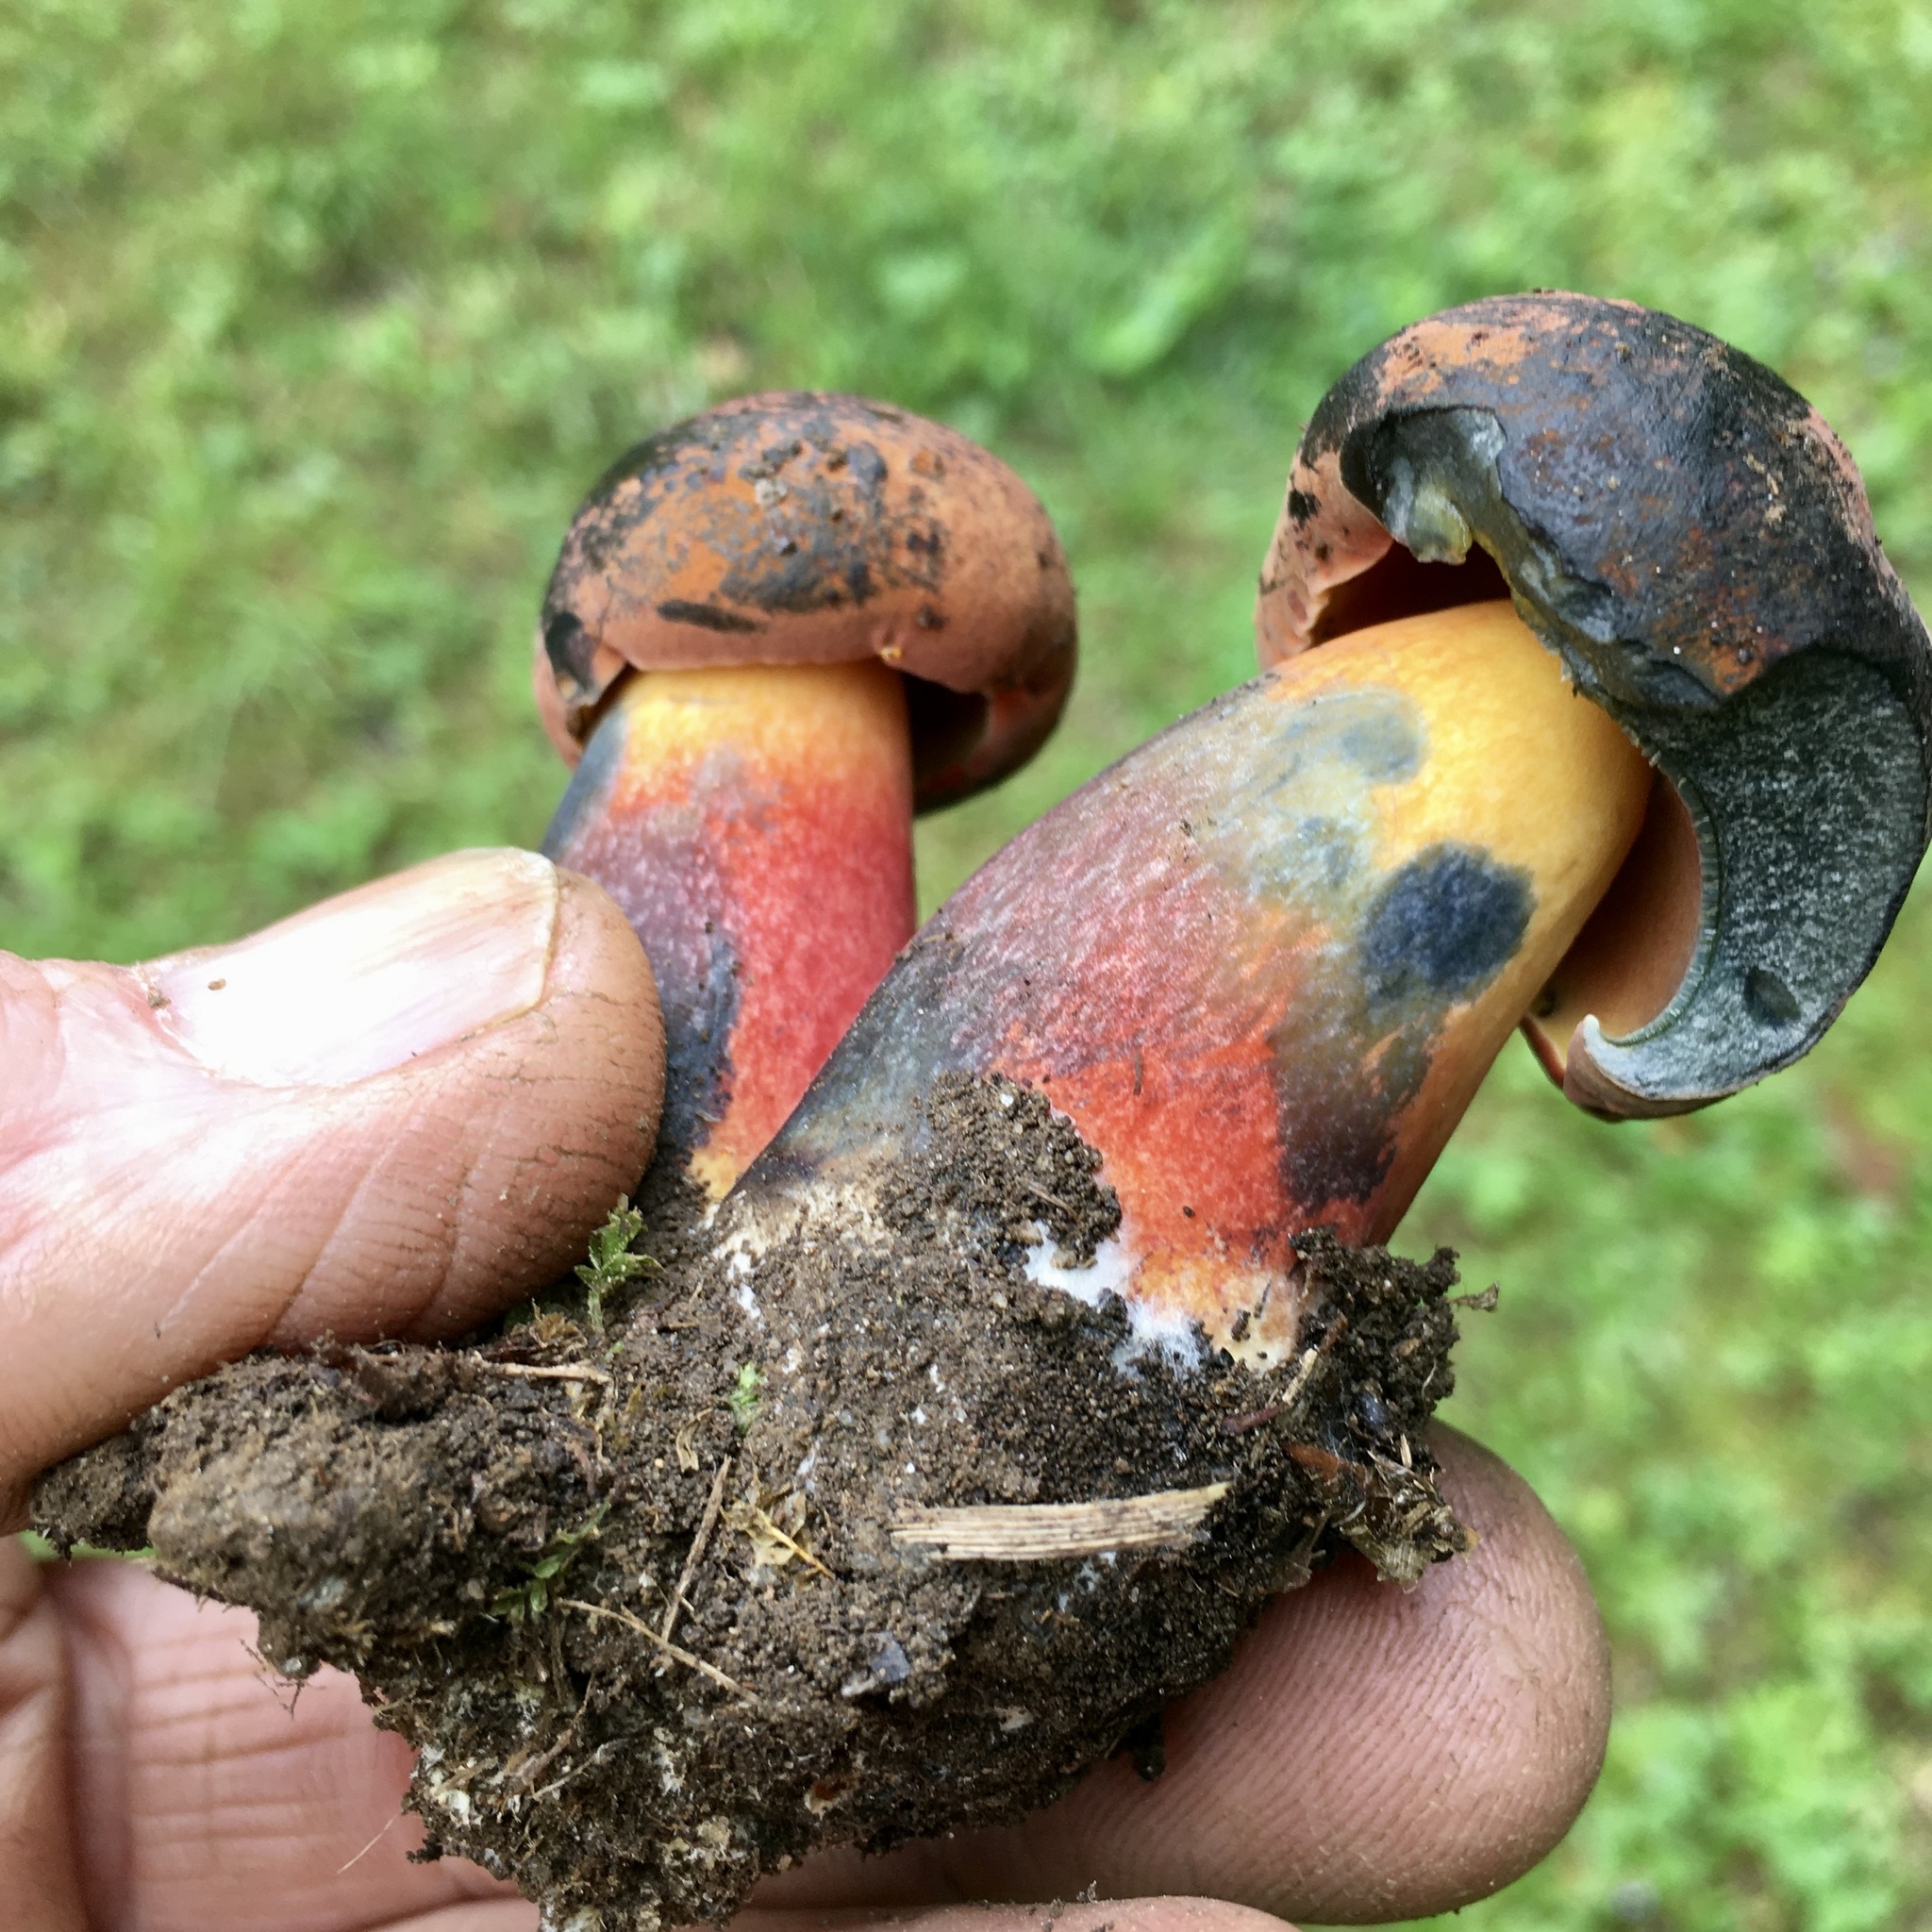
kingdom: Fungi
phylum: Basidiomycota
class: Agaricomycetes
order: Boletales
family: Boletaceae
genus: Neoboletus
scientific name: Neoboletus luridiformis
